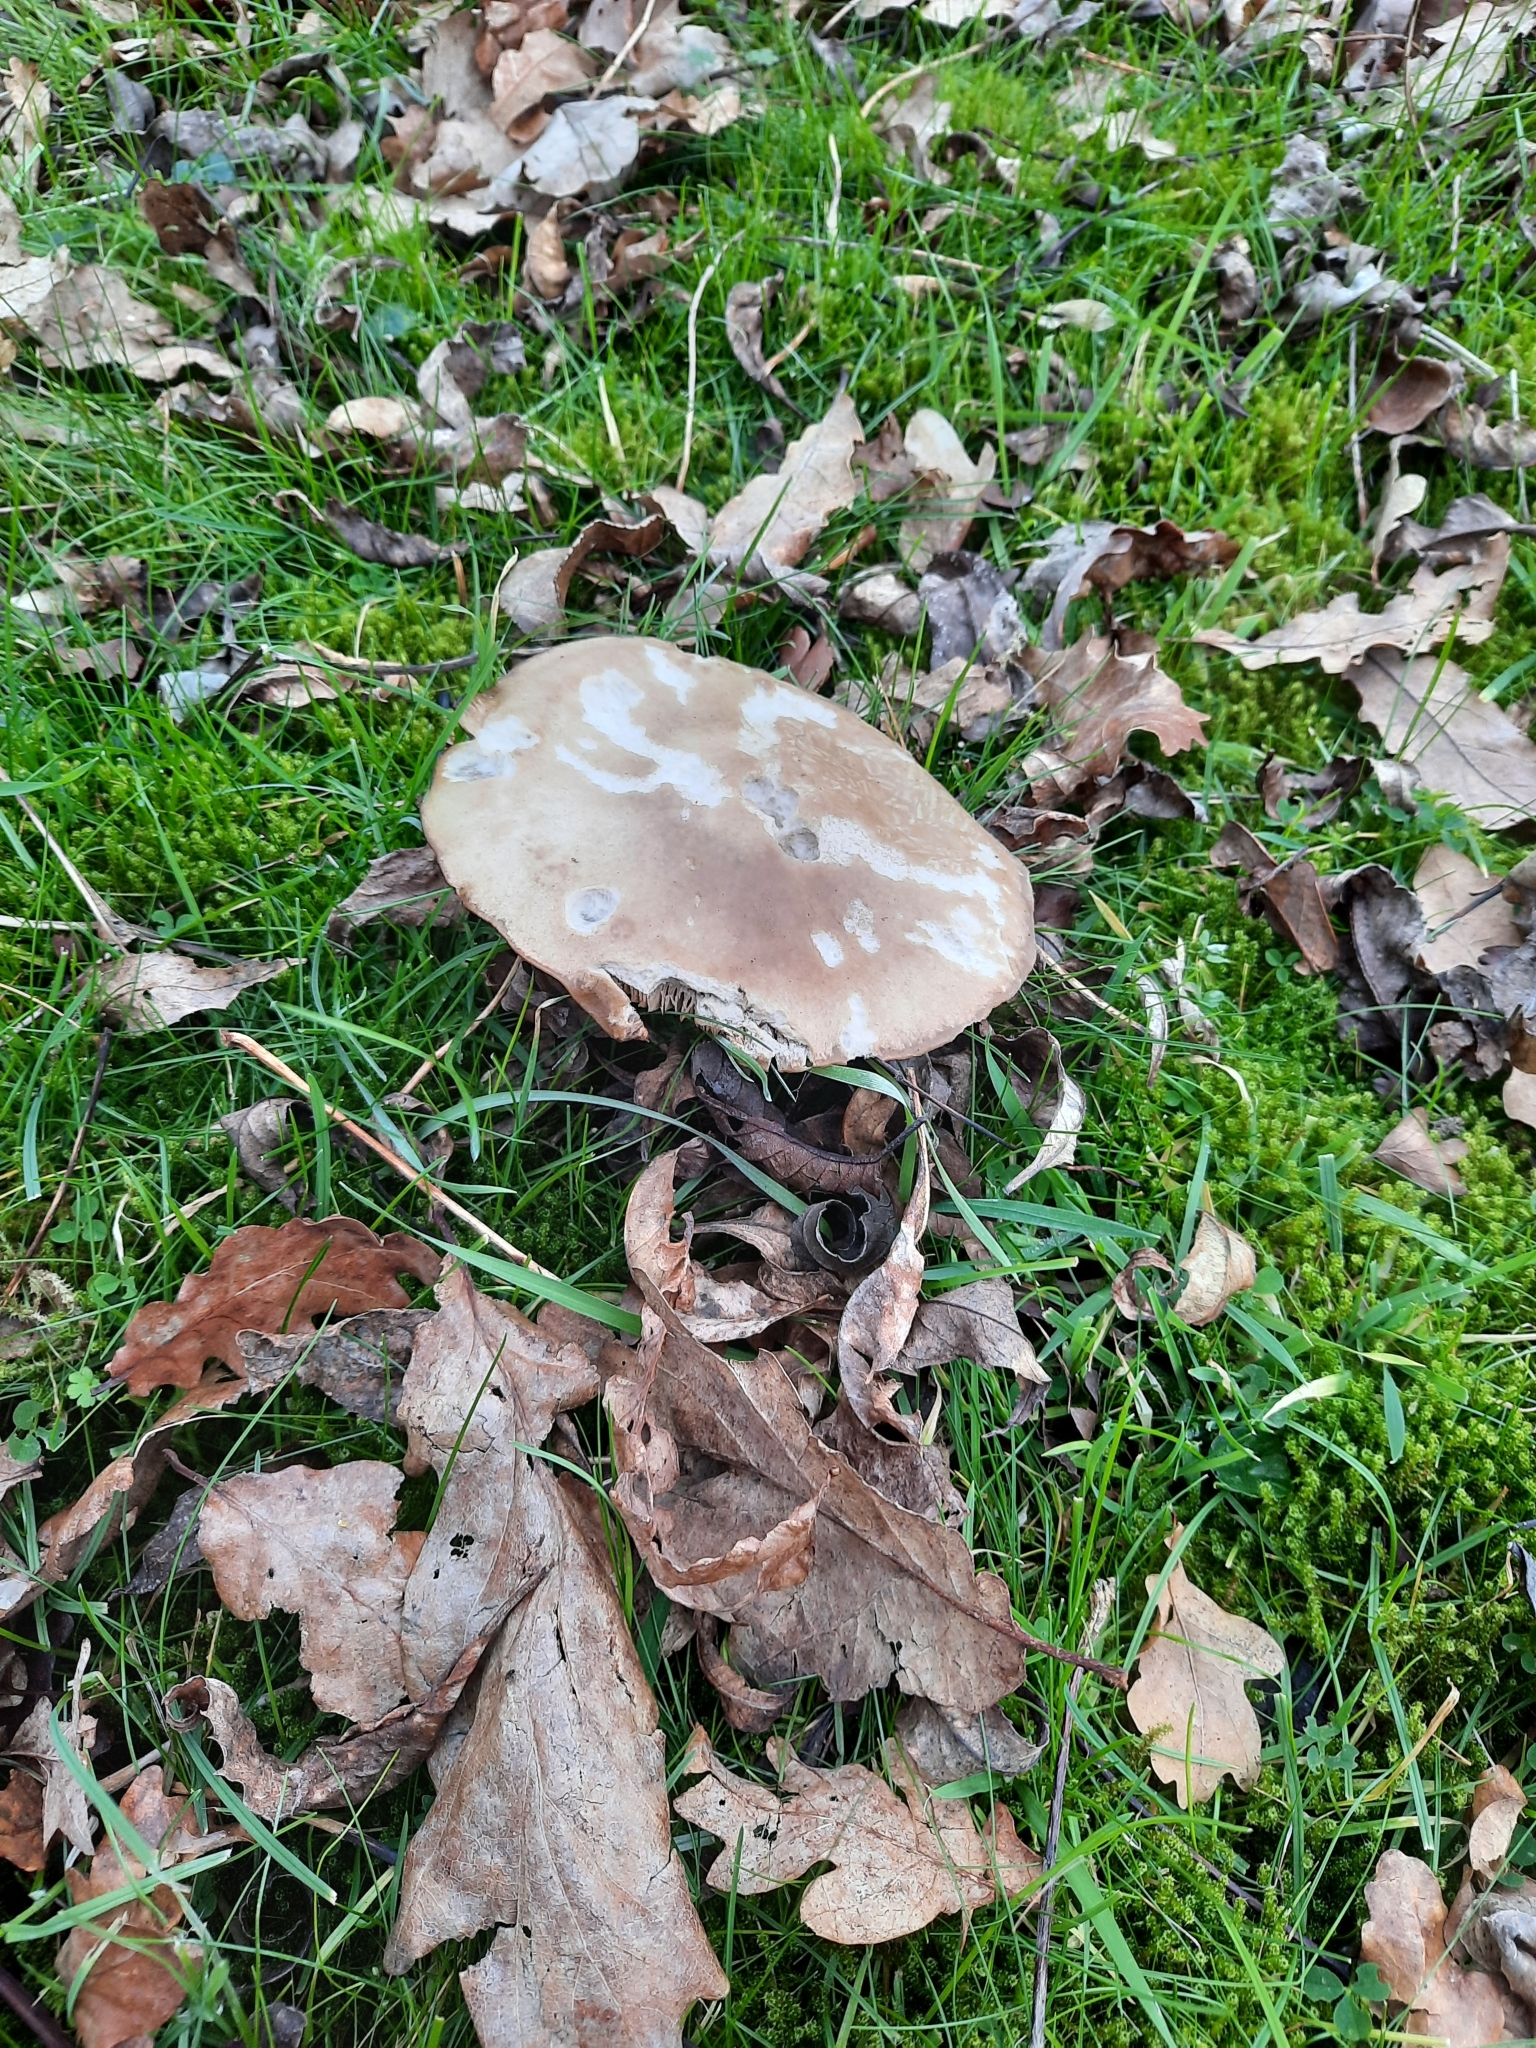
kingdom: Fungi
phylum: Basidiomycota
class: Agaricomycetes
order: Agaricales
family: Tricholomataceae
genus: Clitocybe
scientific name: Clitocybe nebularis
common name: Clouded agaric
